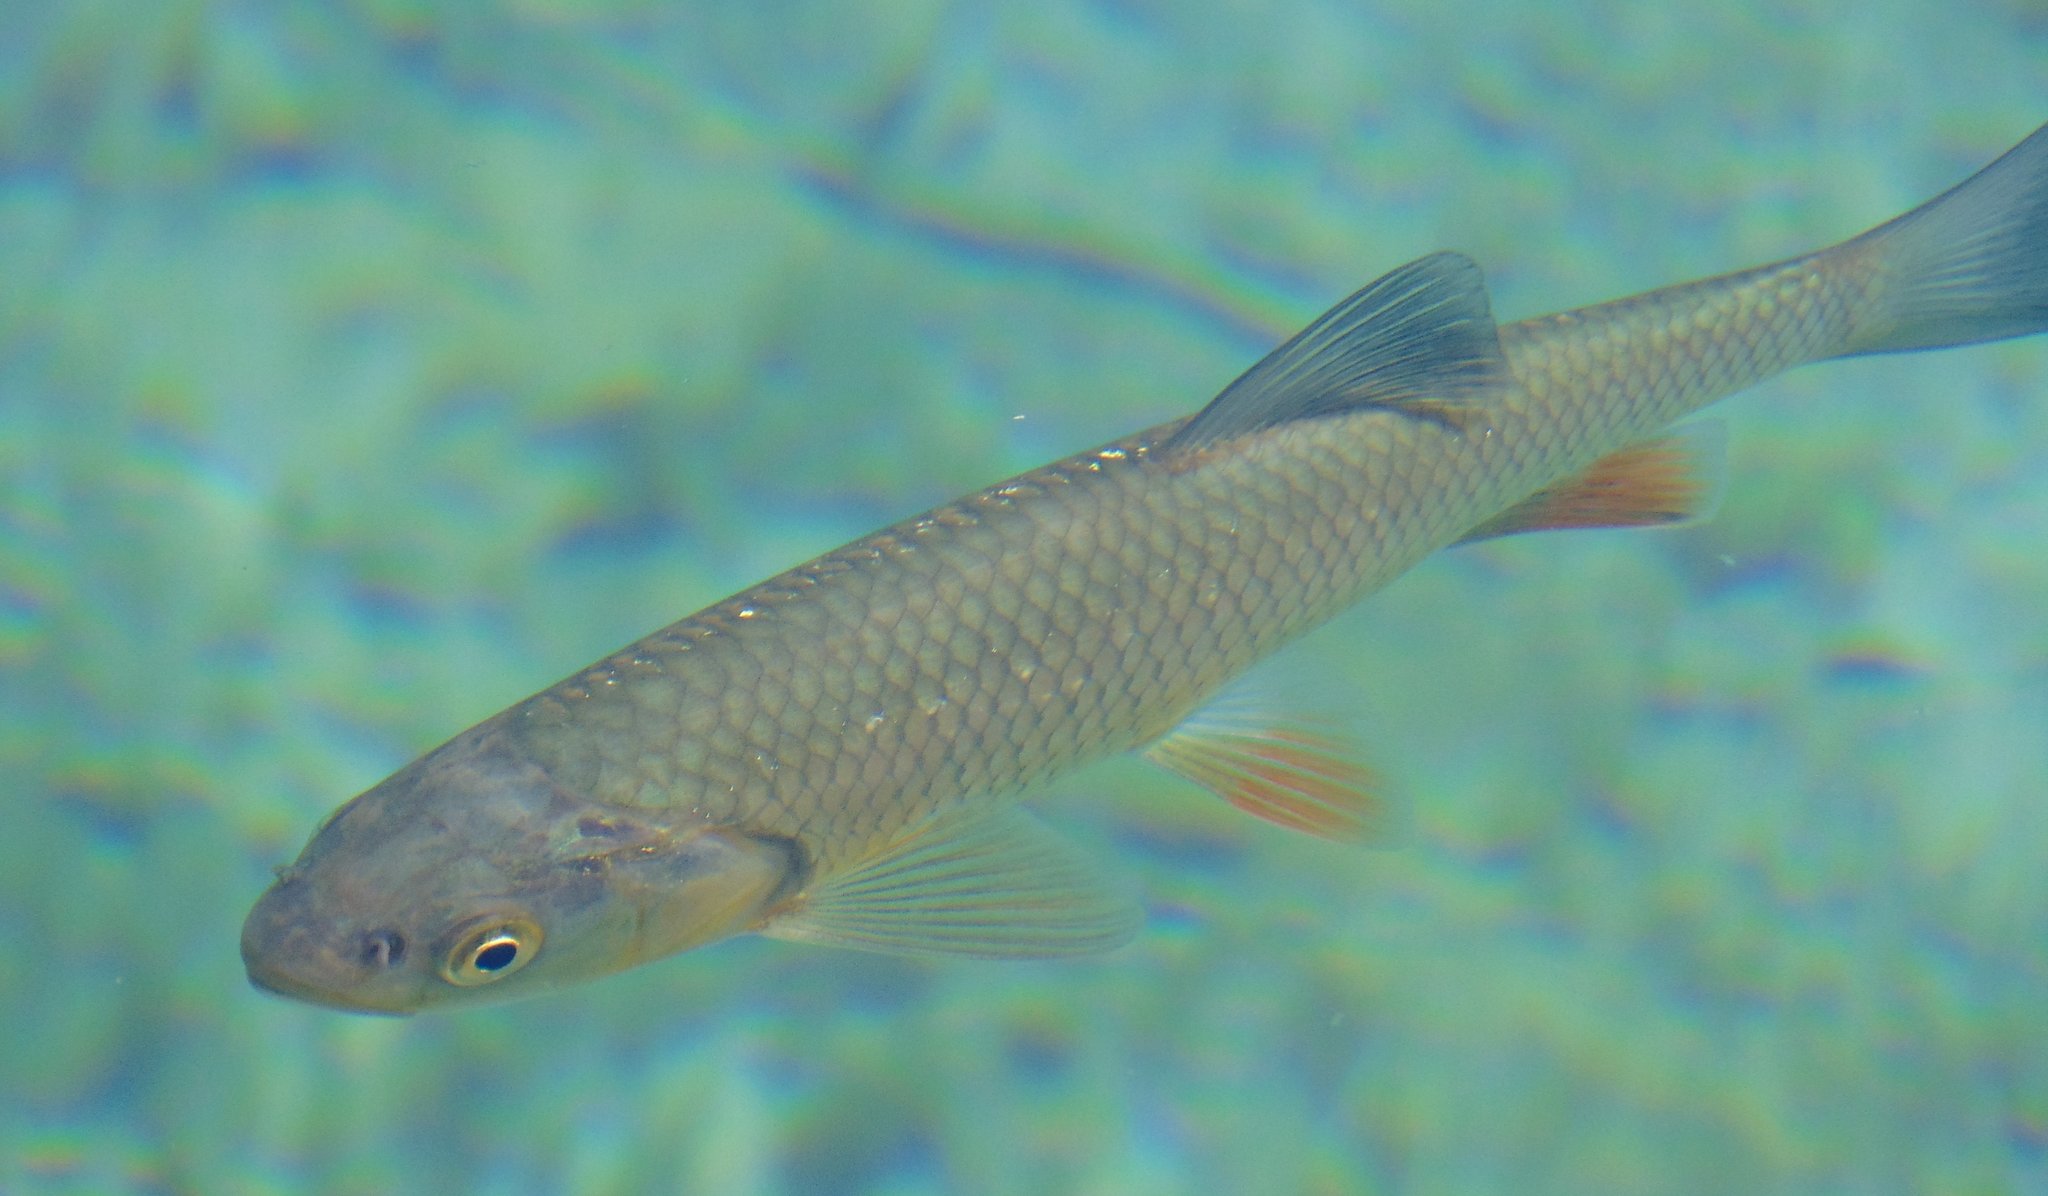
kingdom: Animalia
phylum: Chordata
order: Cypriniformes
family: Cyprinidae
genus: Squalius
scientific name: Squalius cephalus
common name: Chub
